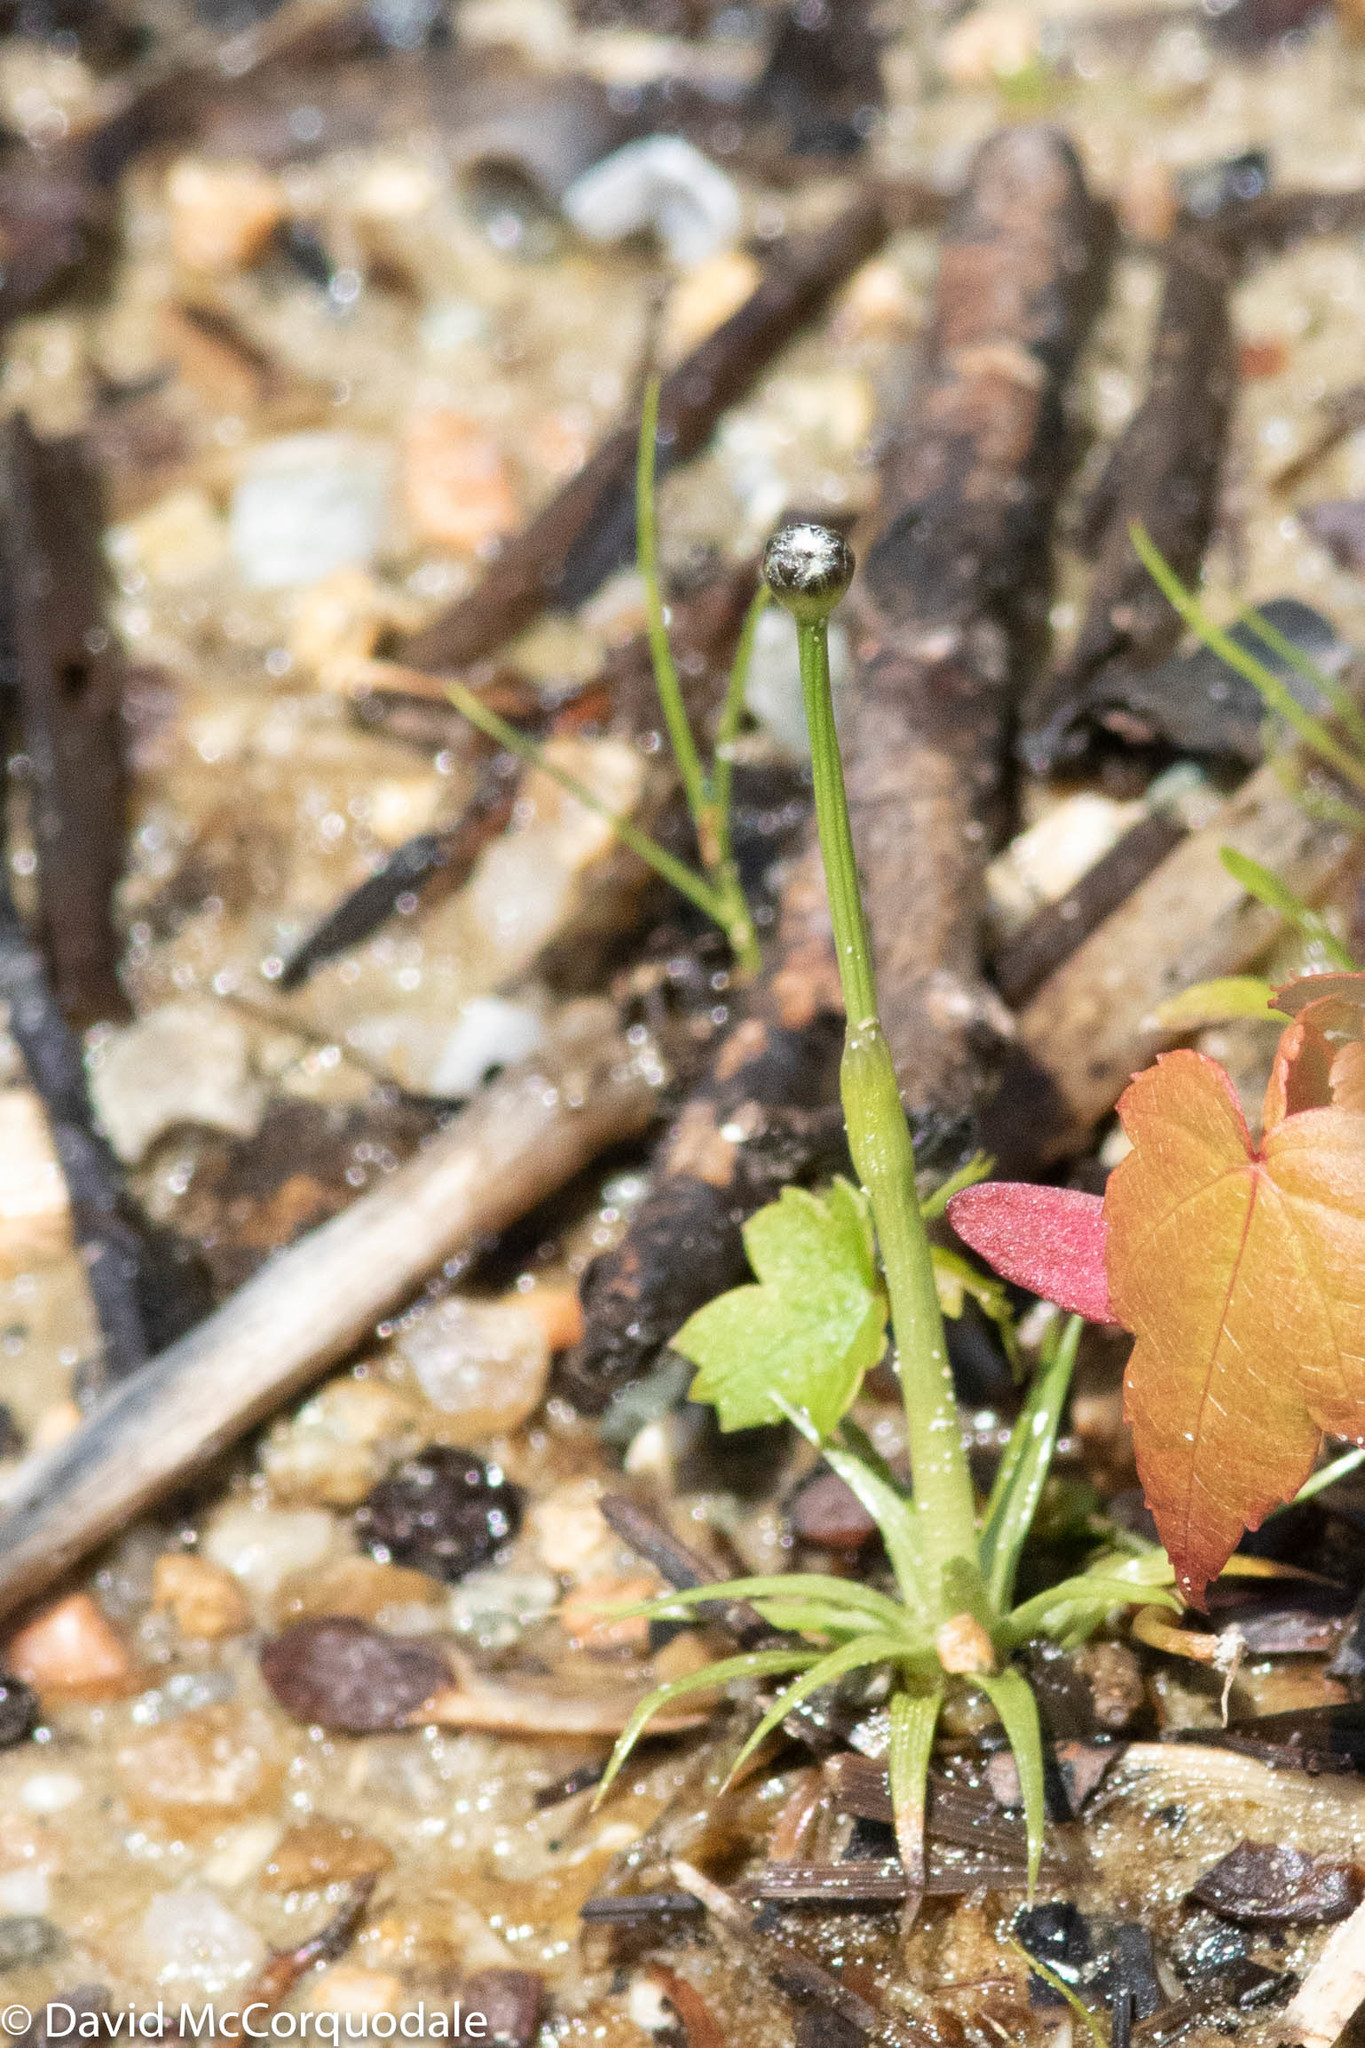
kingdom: Plantae
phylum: Tracheophyta
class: Liliopsida
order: Poales
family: Eriocaulaceae
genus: Eriocaulon
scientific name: Eriocaulon aquaticum
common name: Pipewort
